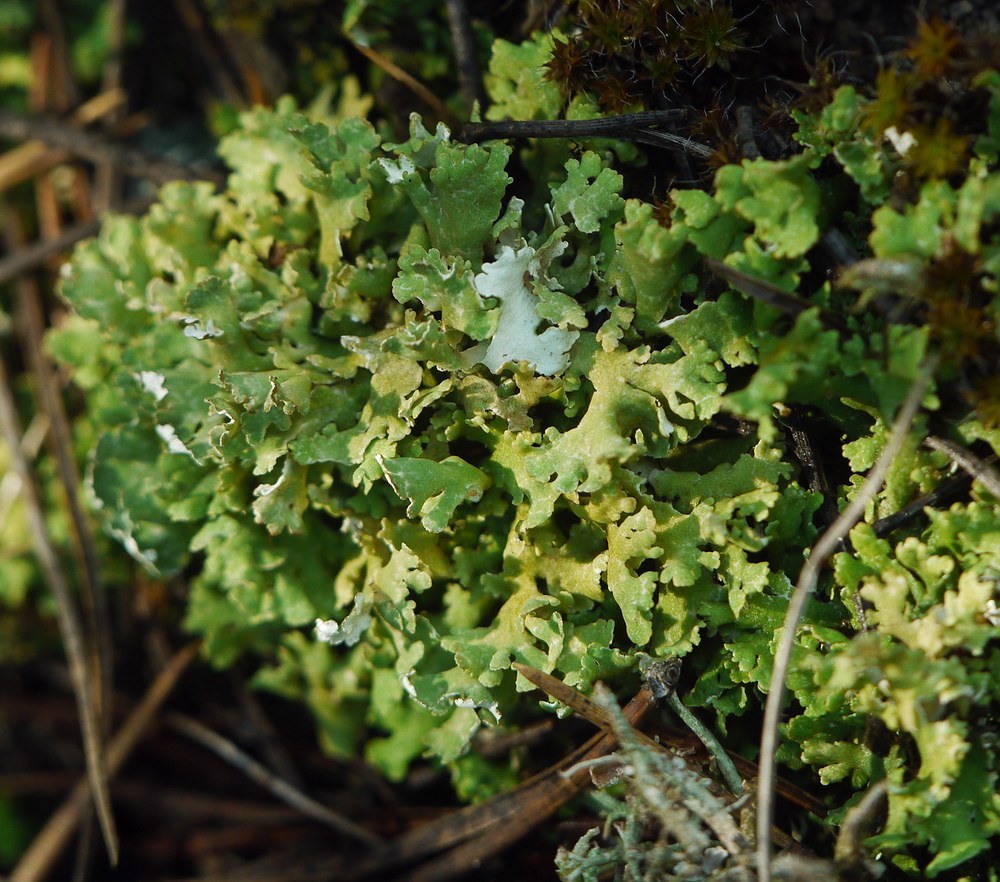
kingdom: Fungi
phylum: Ascomycota
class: Lecanoromycetes
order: Lecanorales
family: Cladoniaceae
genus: Cladonia
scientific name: Cladonia foliacea
